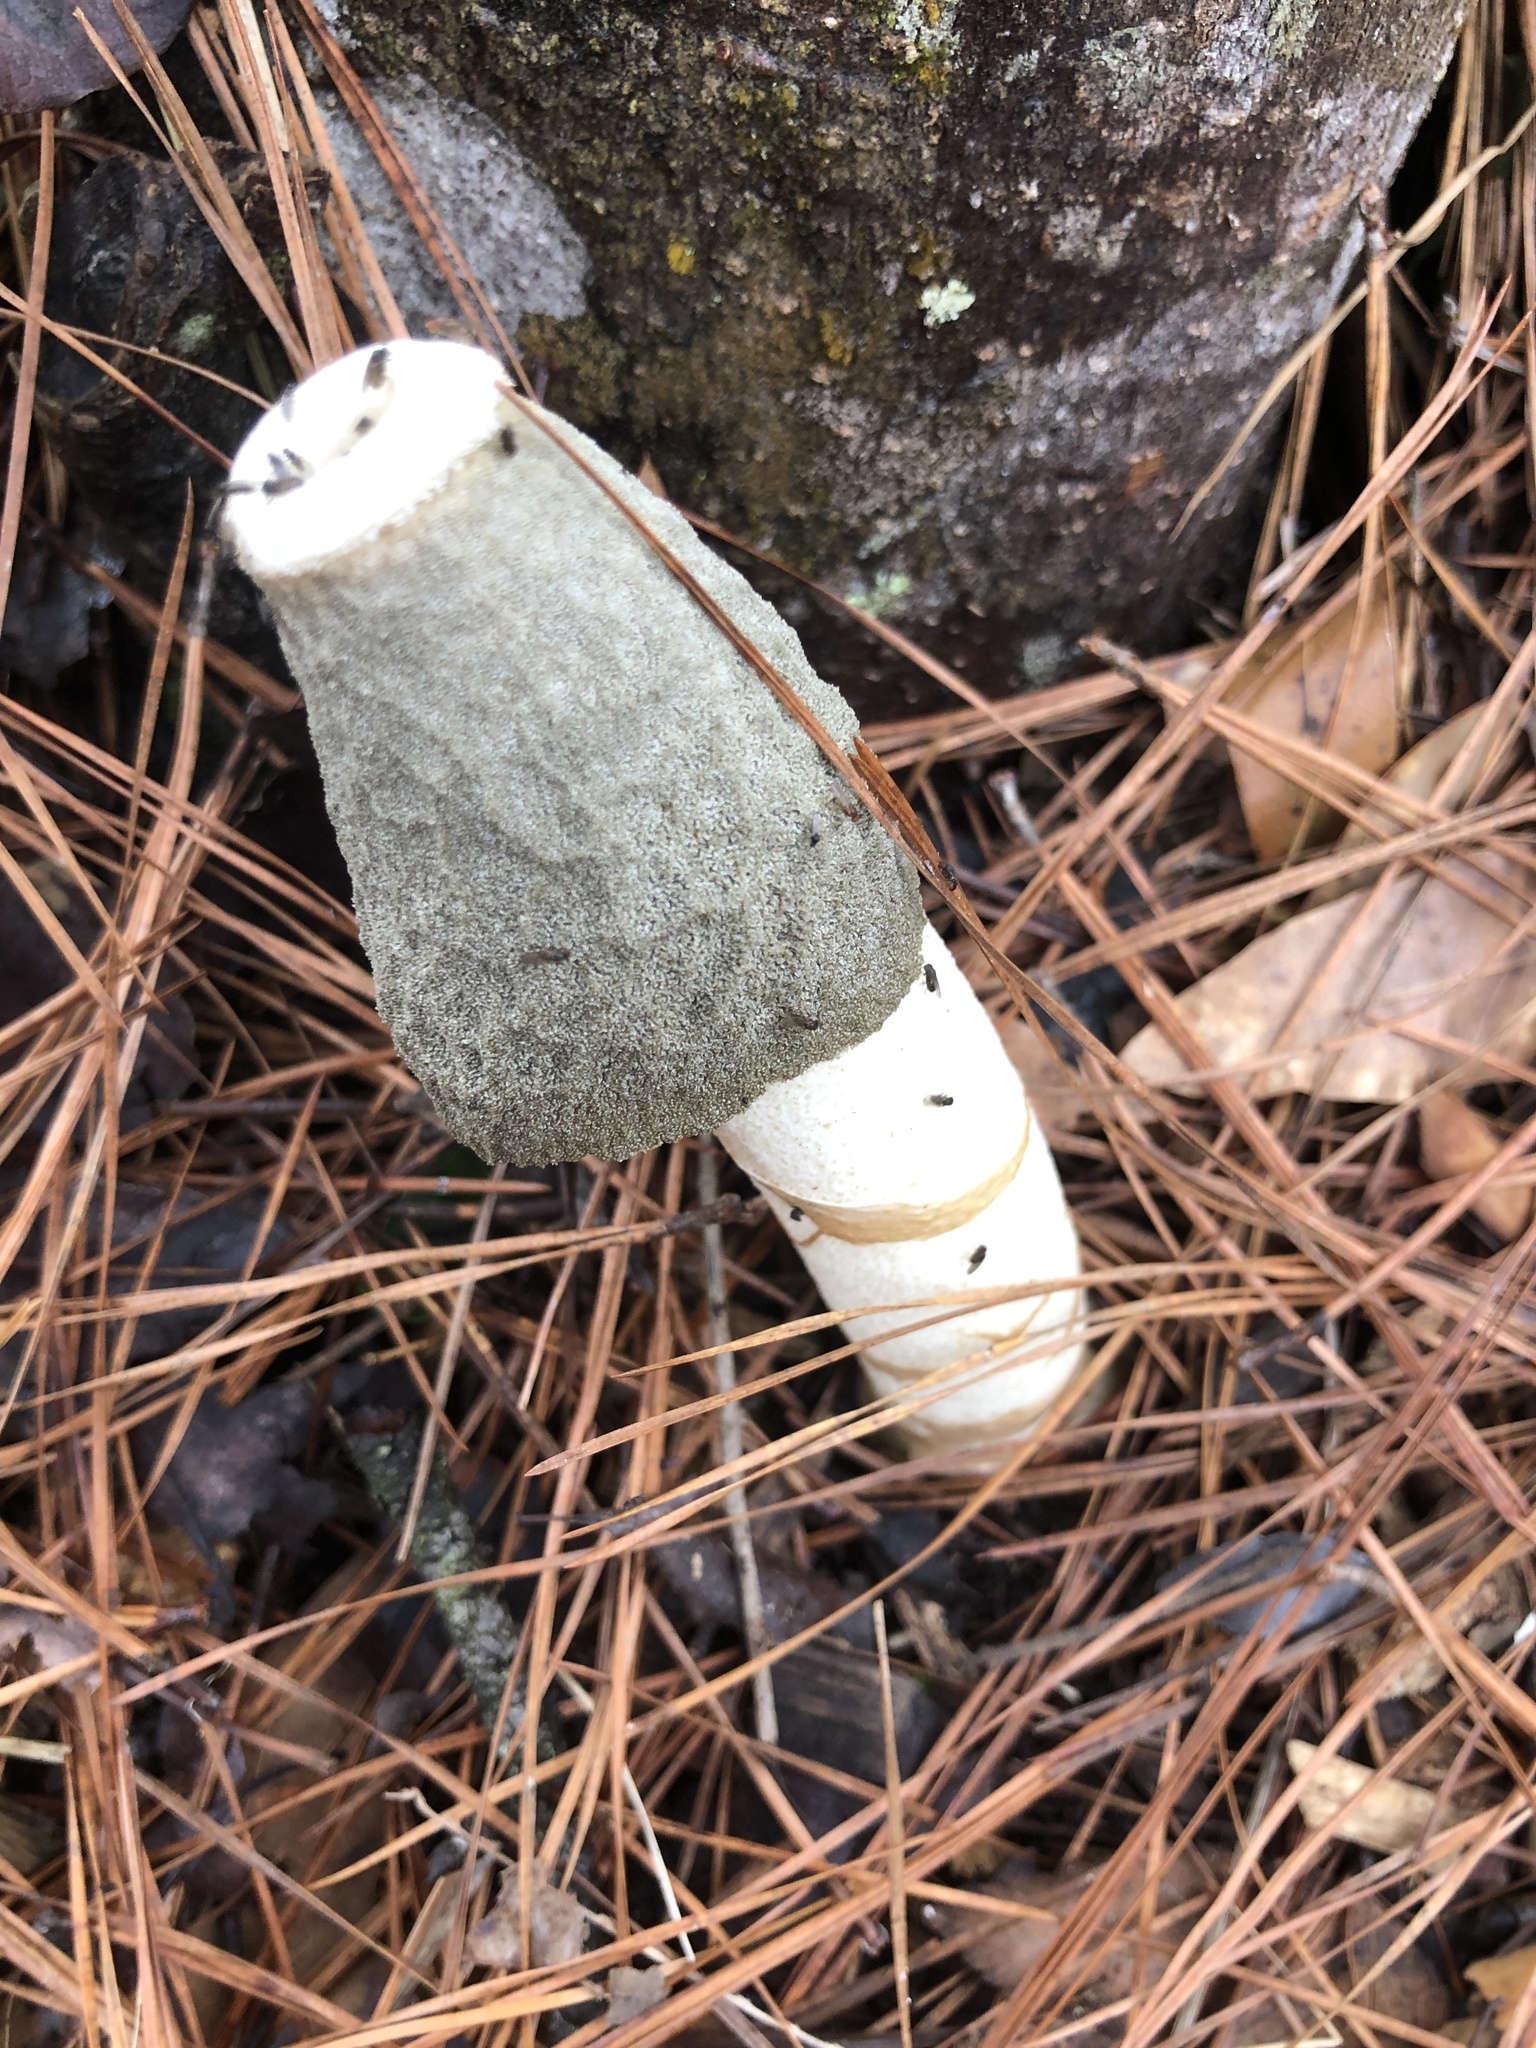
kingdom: Fungi
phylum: Basidiomycota
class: Agaricomycetes
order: Phallales
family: Phallaceae
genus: Phallus
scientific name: Phallus ravenelii
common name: Ravenel's stinkhorn
